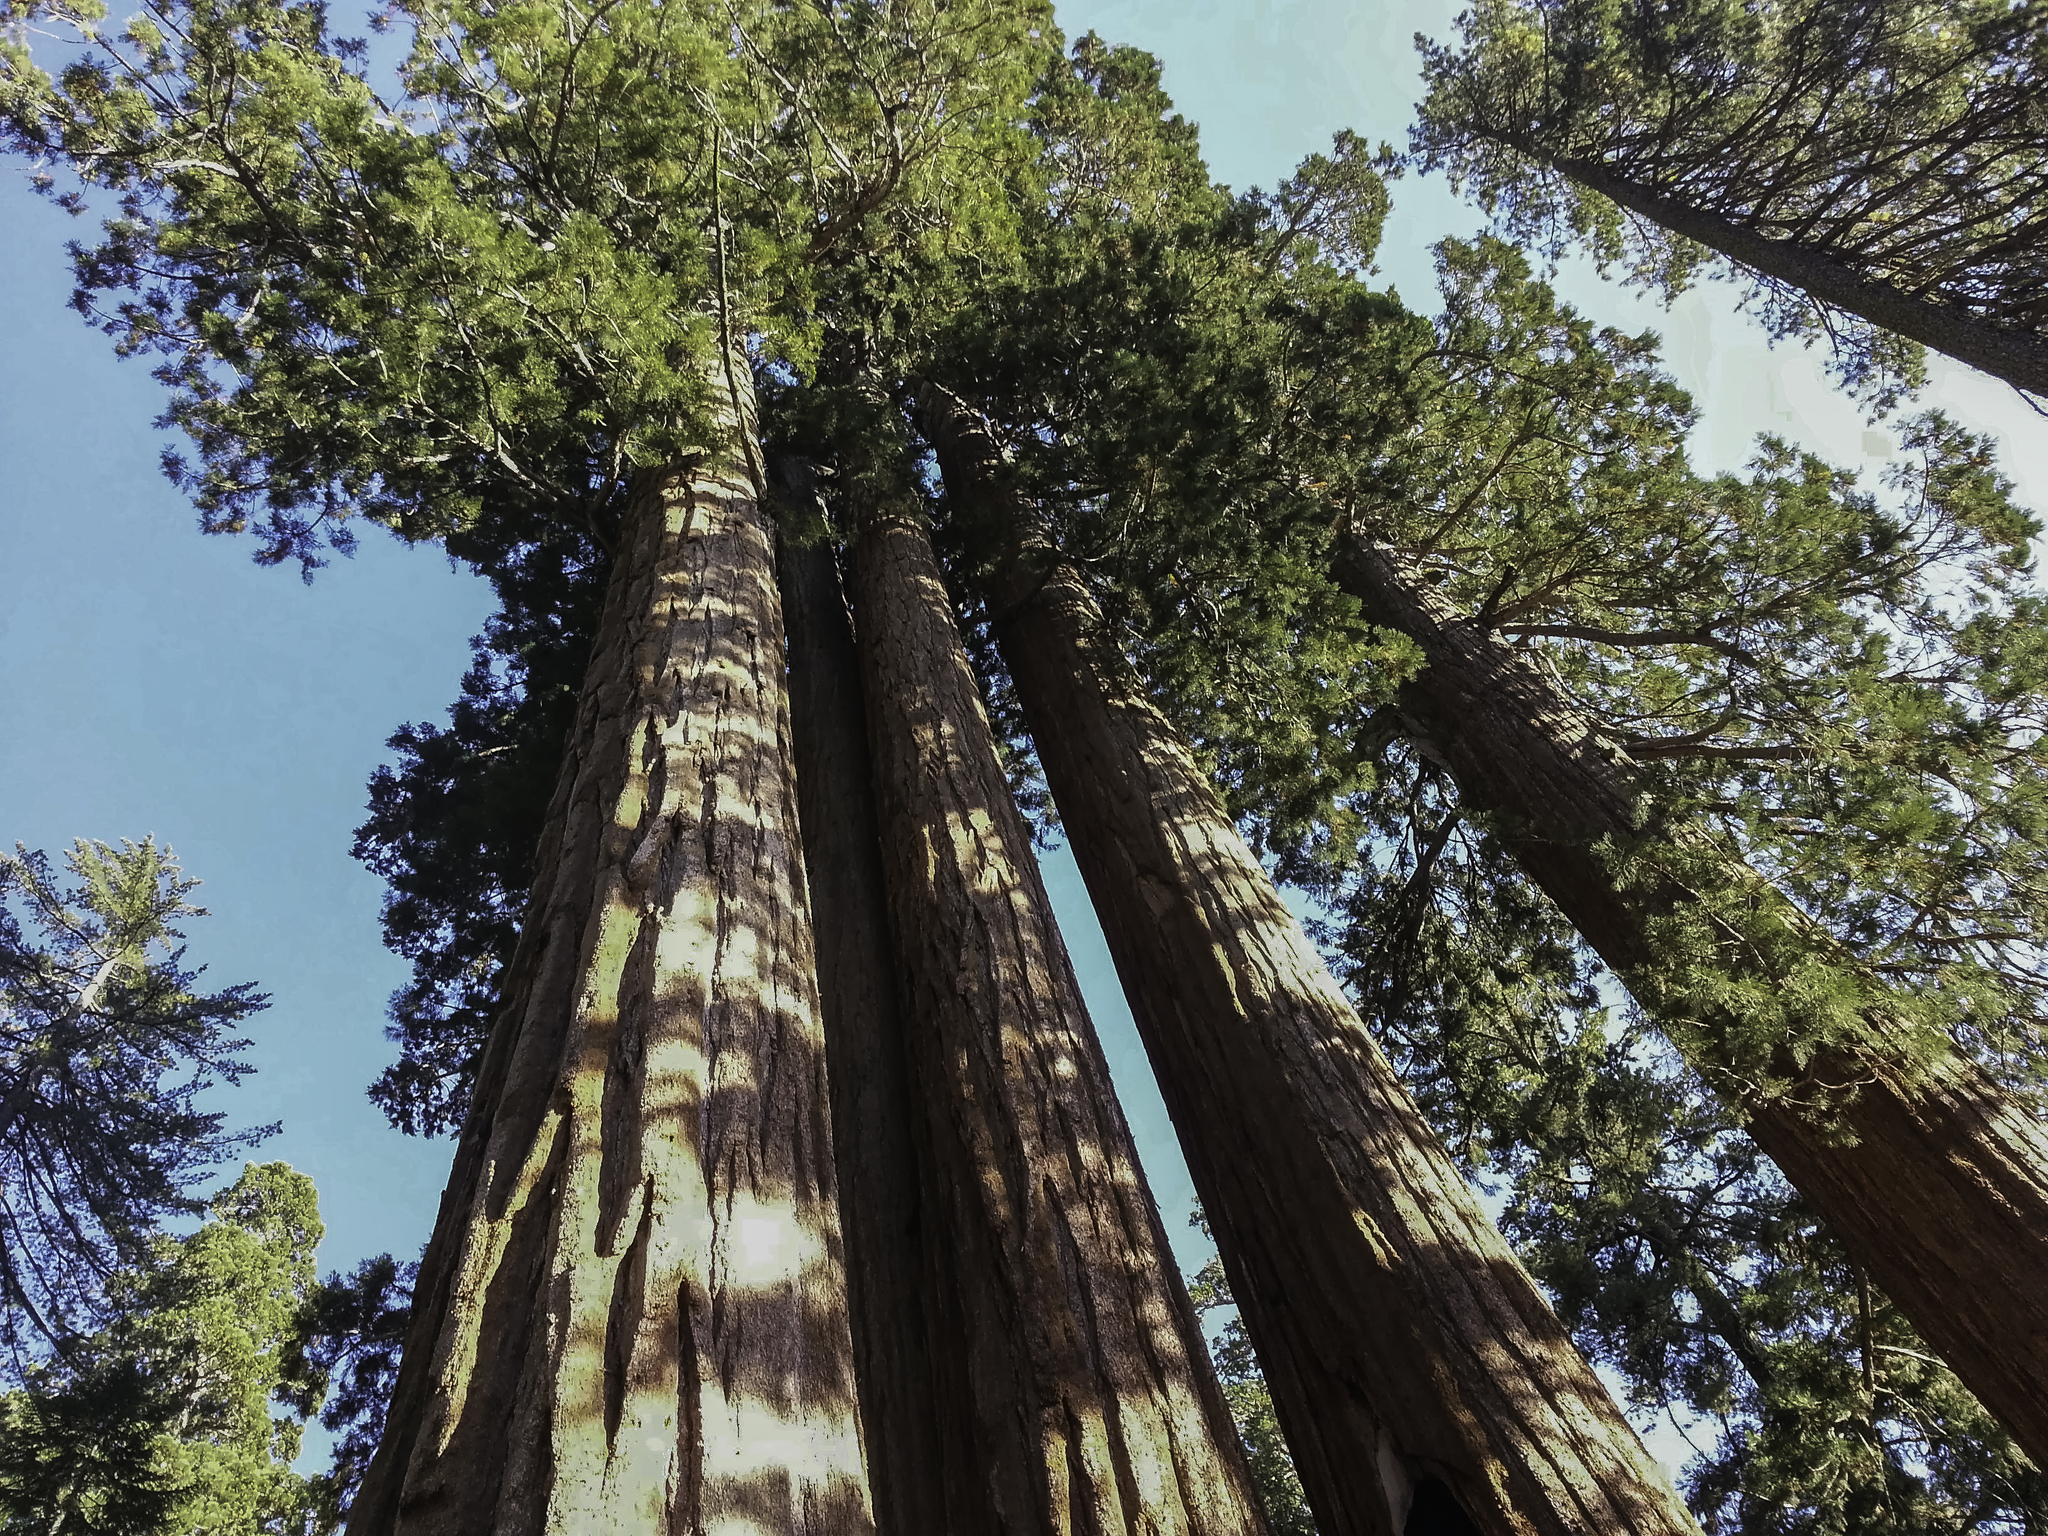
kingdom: Plantae
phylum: Tracheophyta
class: Pinopsida
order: Pinales
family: Cupressaceae
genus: Sequoiadendron
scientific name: Sequoiadendron giganteum
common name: Wellingtonia
